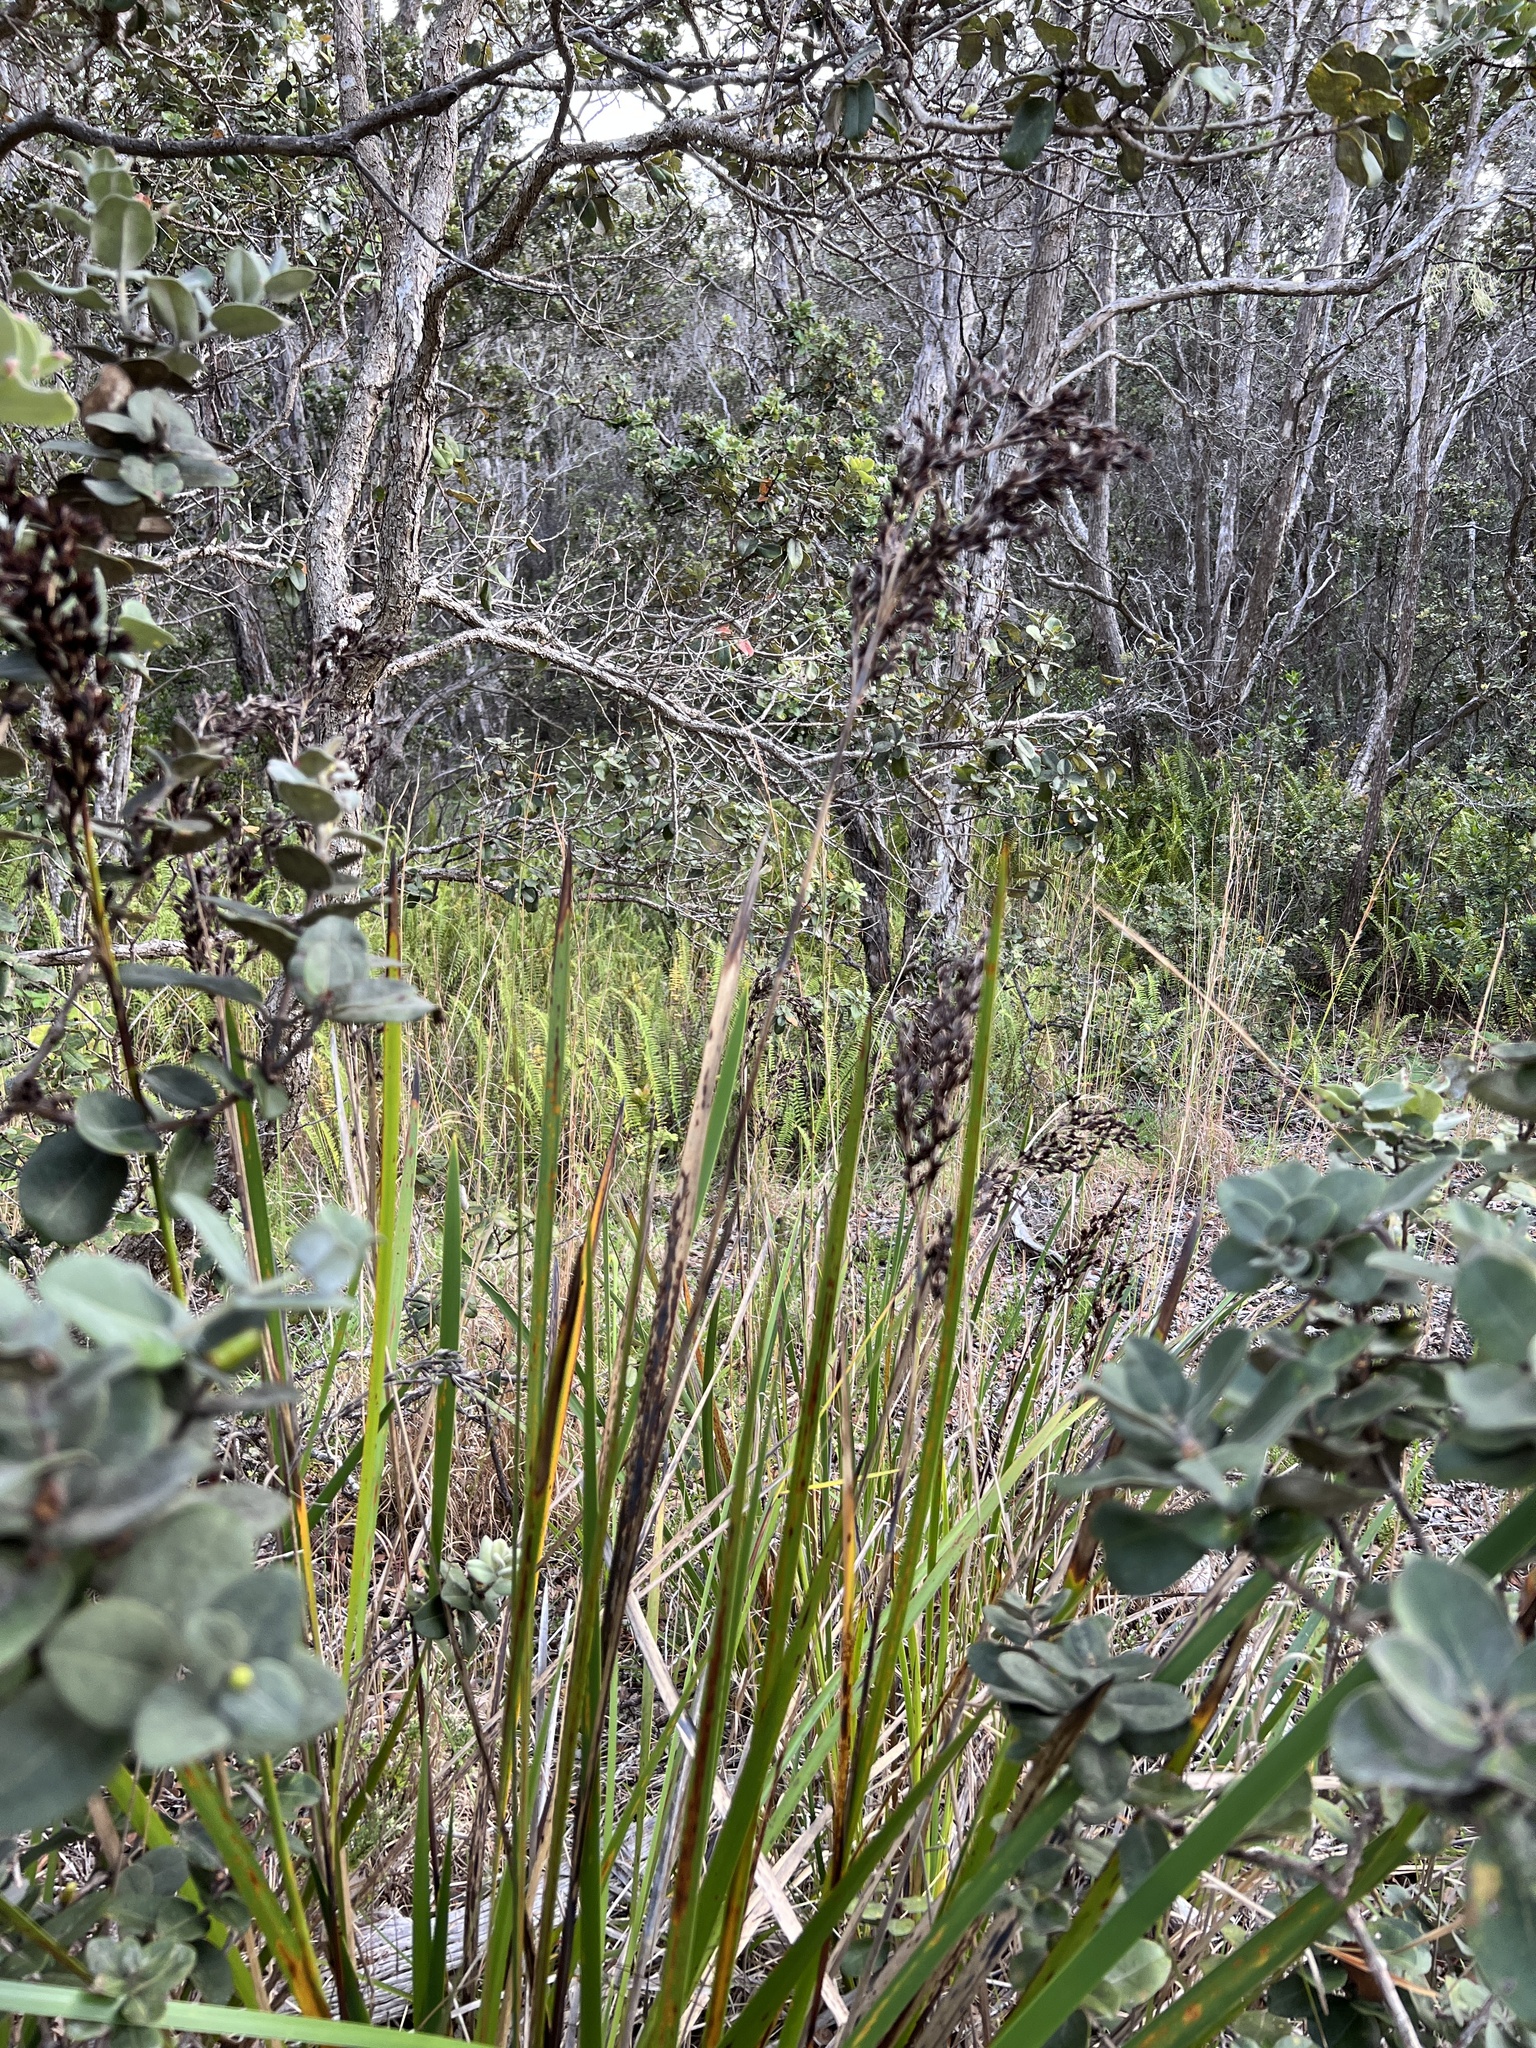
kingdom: Plantae
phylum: Tracheophyta
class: Liliopsida
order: Poales
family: Cyperaceae
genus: Machaerina
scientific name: Machaerina angustifolia
